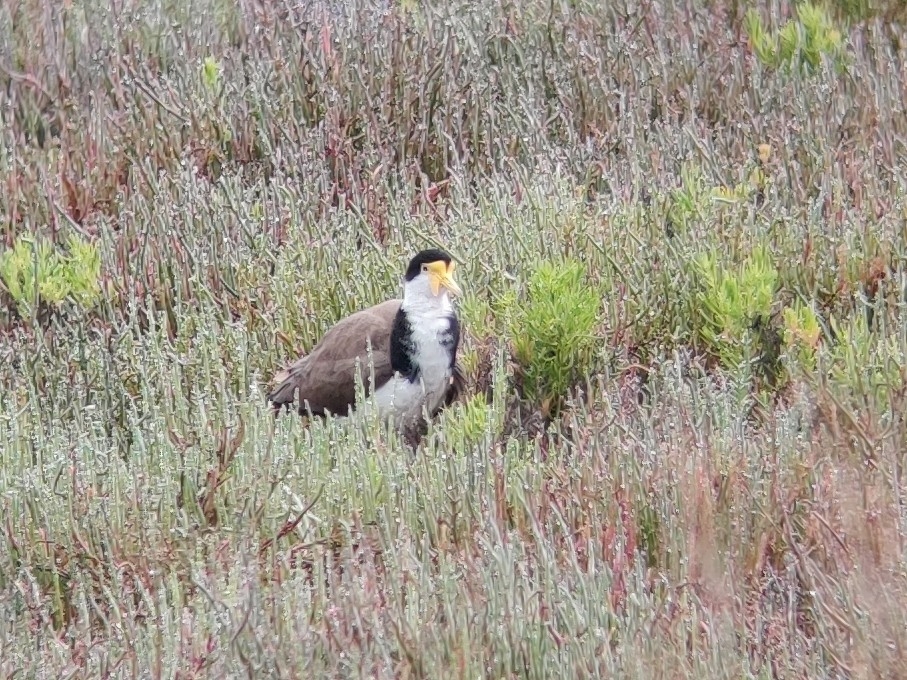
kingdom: Animalia
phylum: Chordata
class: Aves
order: Charadriiformes
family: Charadriidae
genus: Vanellus
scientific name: Vanellus miles
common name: Masked lapwing
